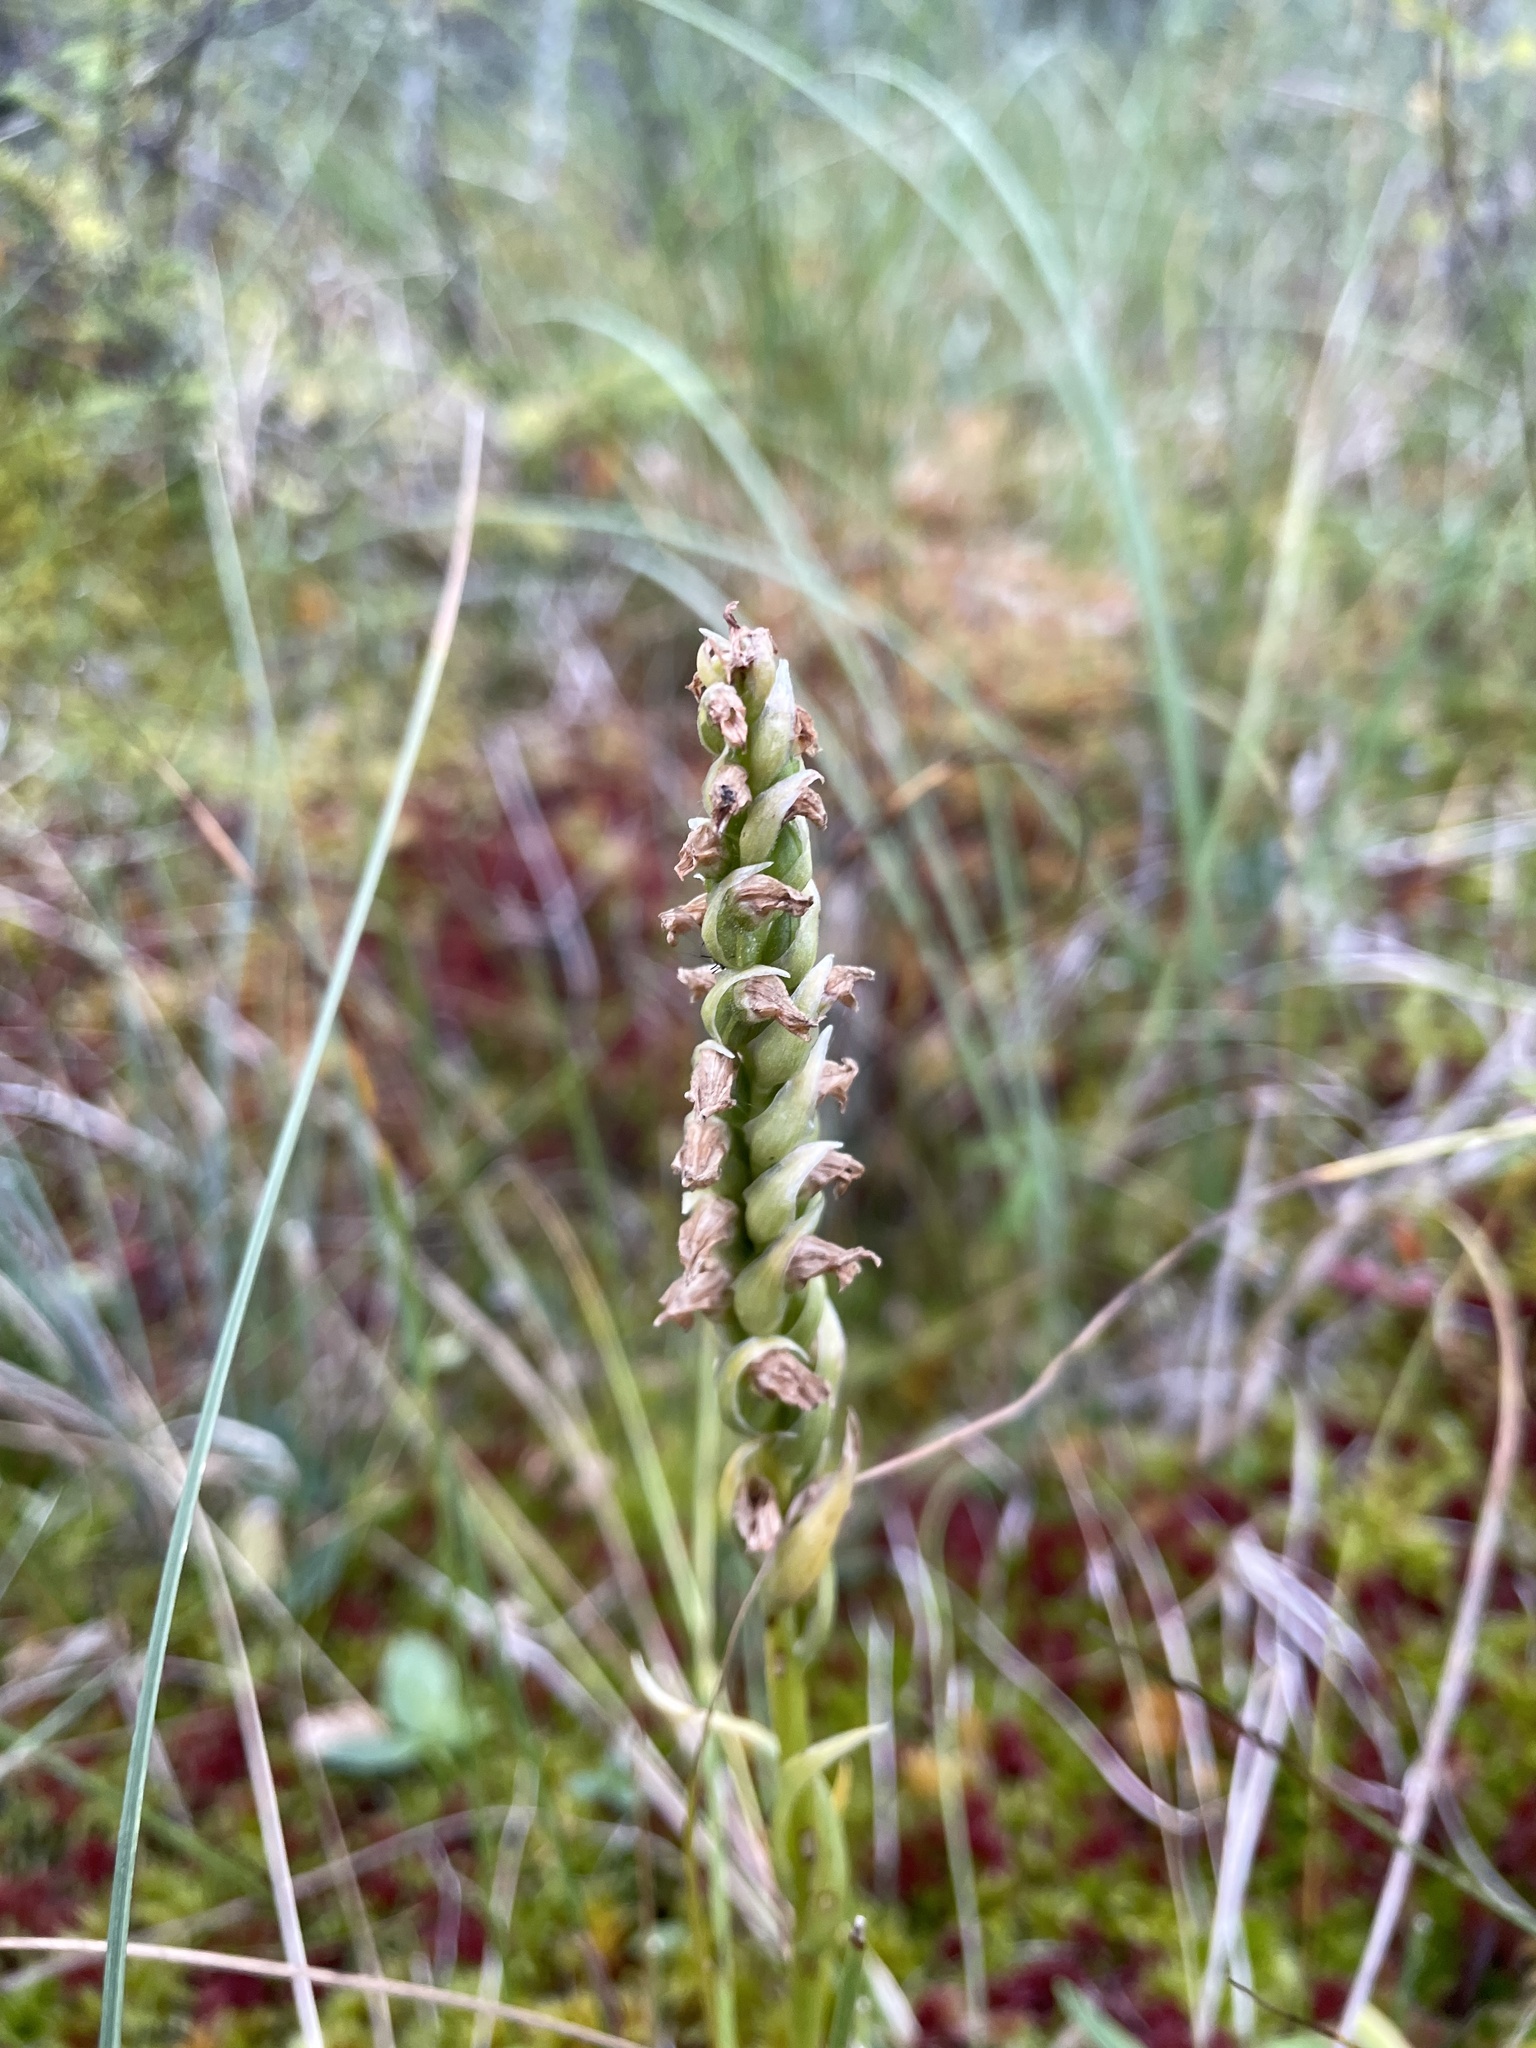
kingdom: Plantae
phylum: Tracheophyta
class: Liliopsida
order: Asparagales
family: Orchidaceae
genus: Spiranthes
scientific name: Spiranthes romanzoffiana
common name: Irish lady's-tresses
